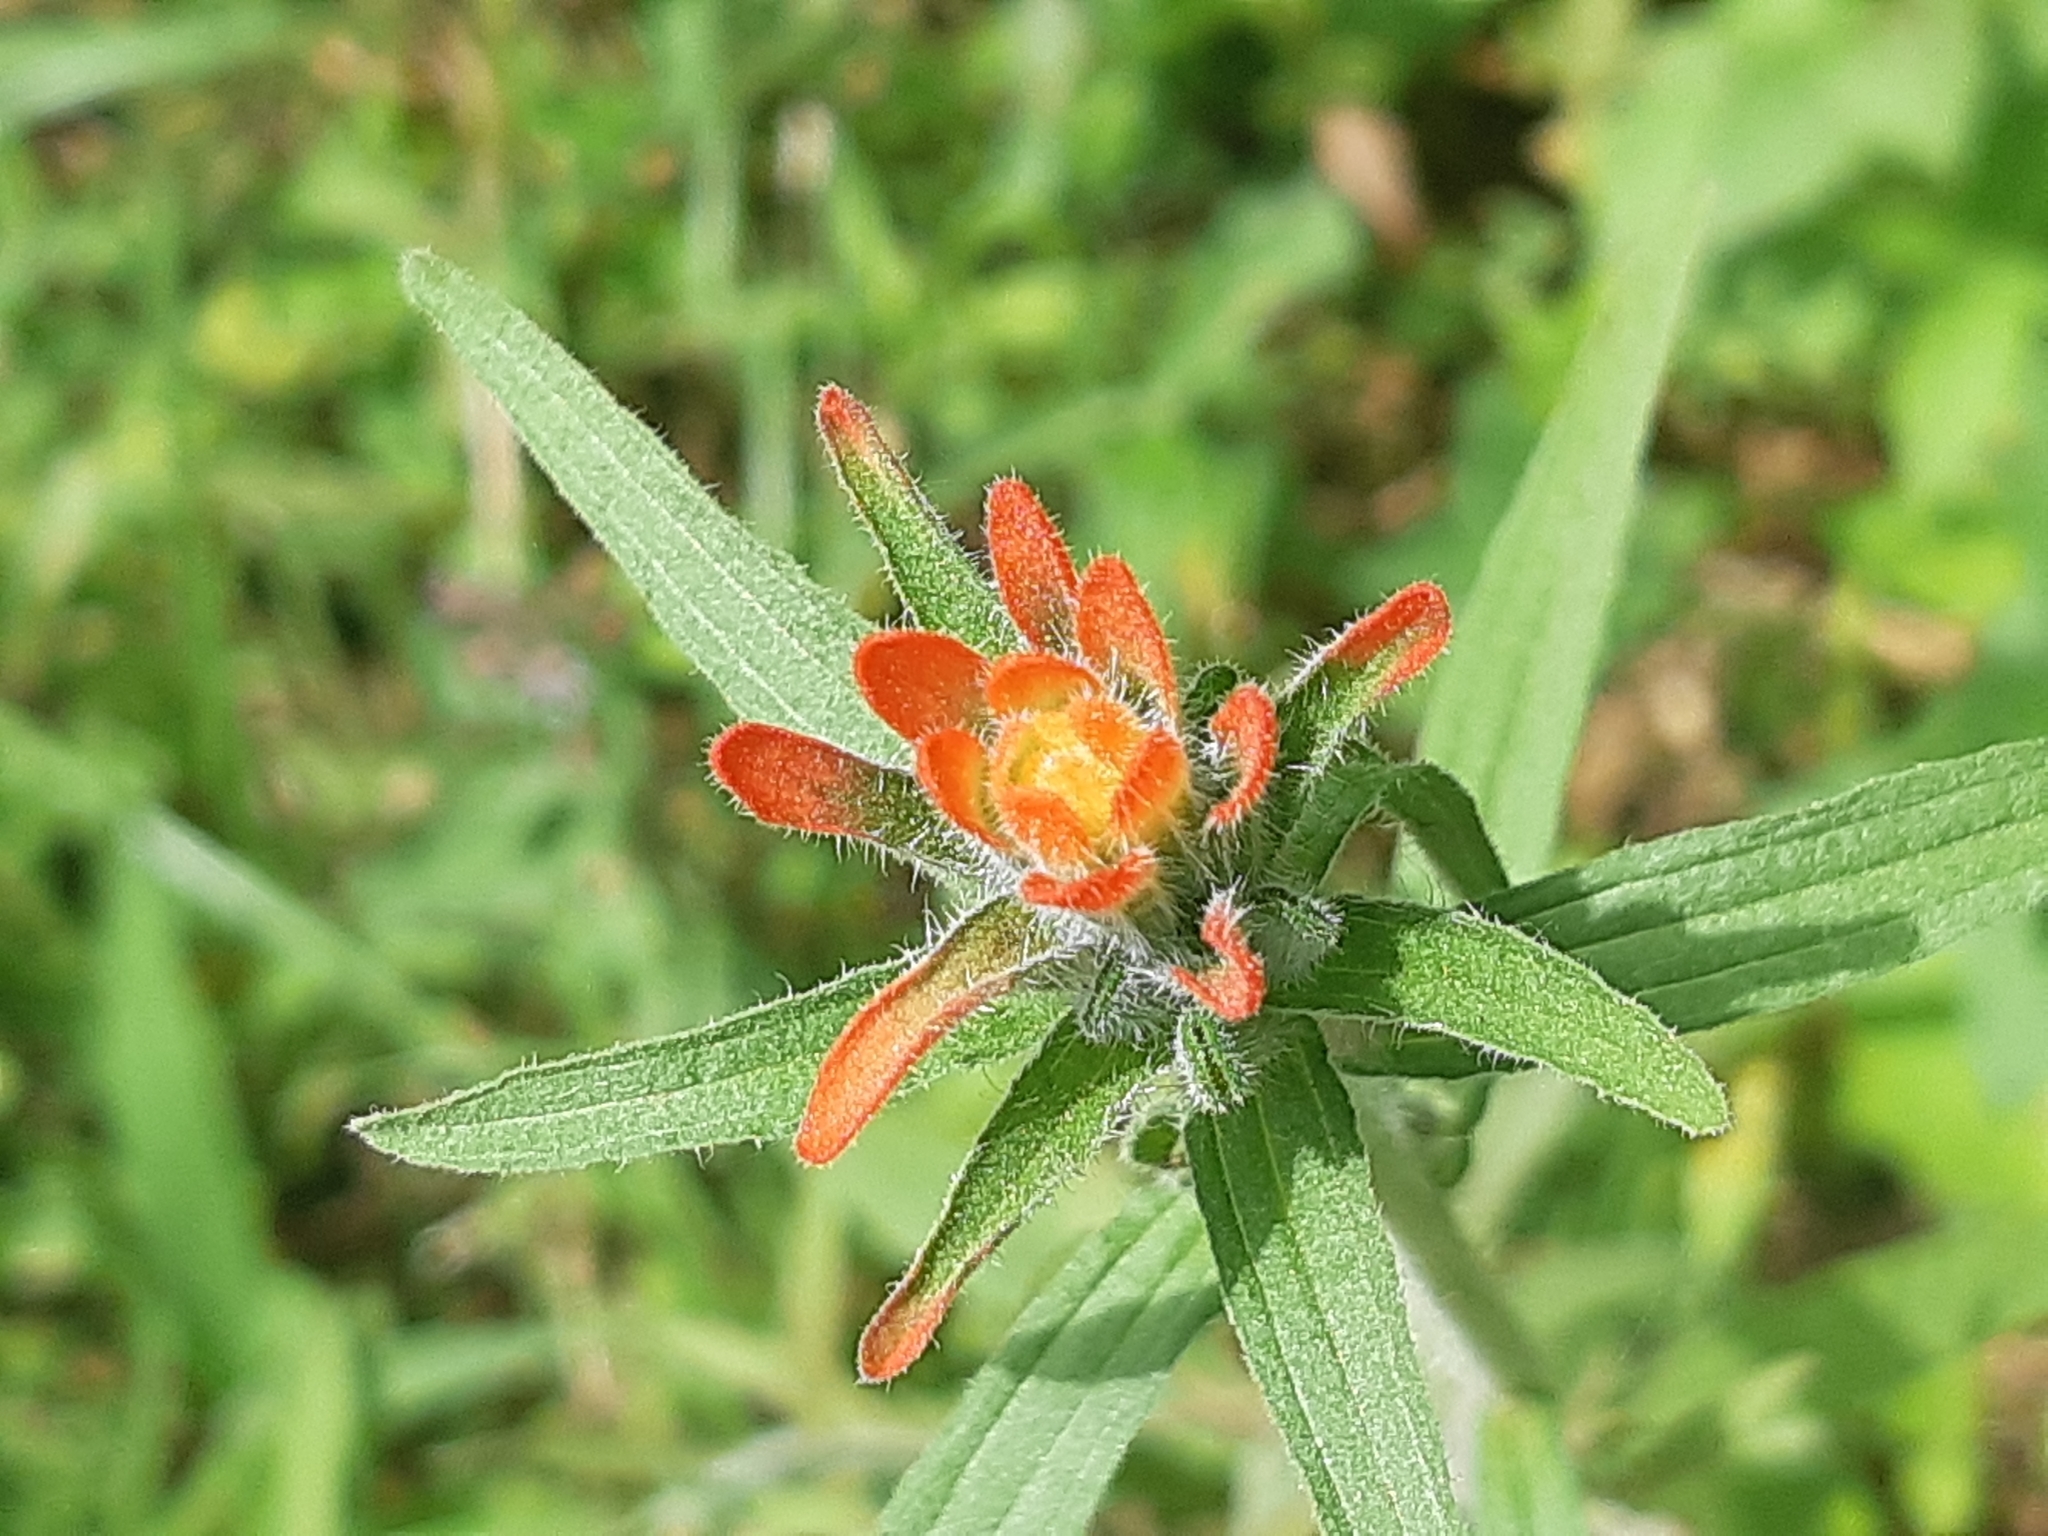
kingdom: Plantae
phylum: Tracheophyta
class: Magnoliopsida
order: Lamiales
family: Orobanchaceae
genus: Castilleja
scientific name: Castilleja arvensis
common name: Indian paintbrush
